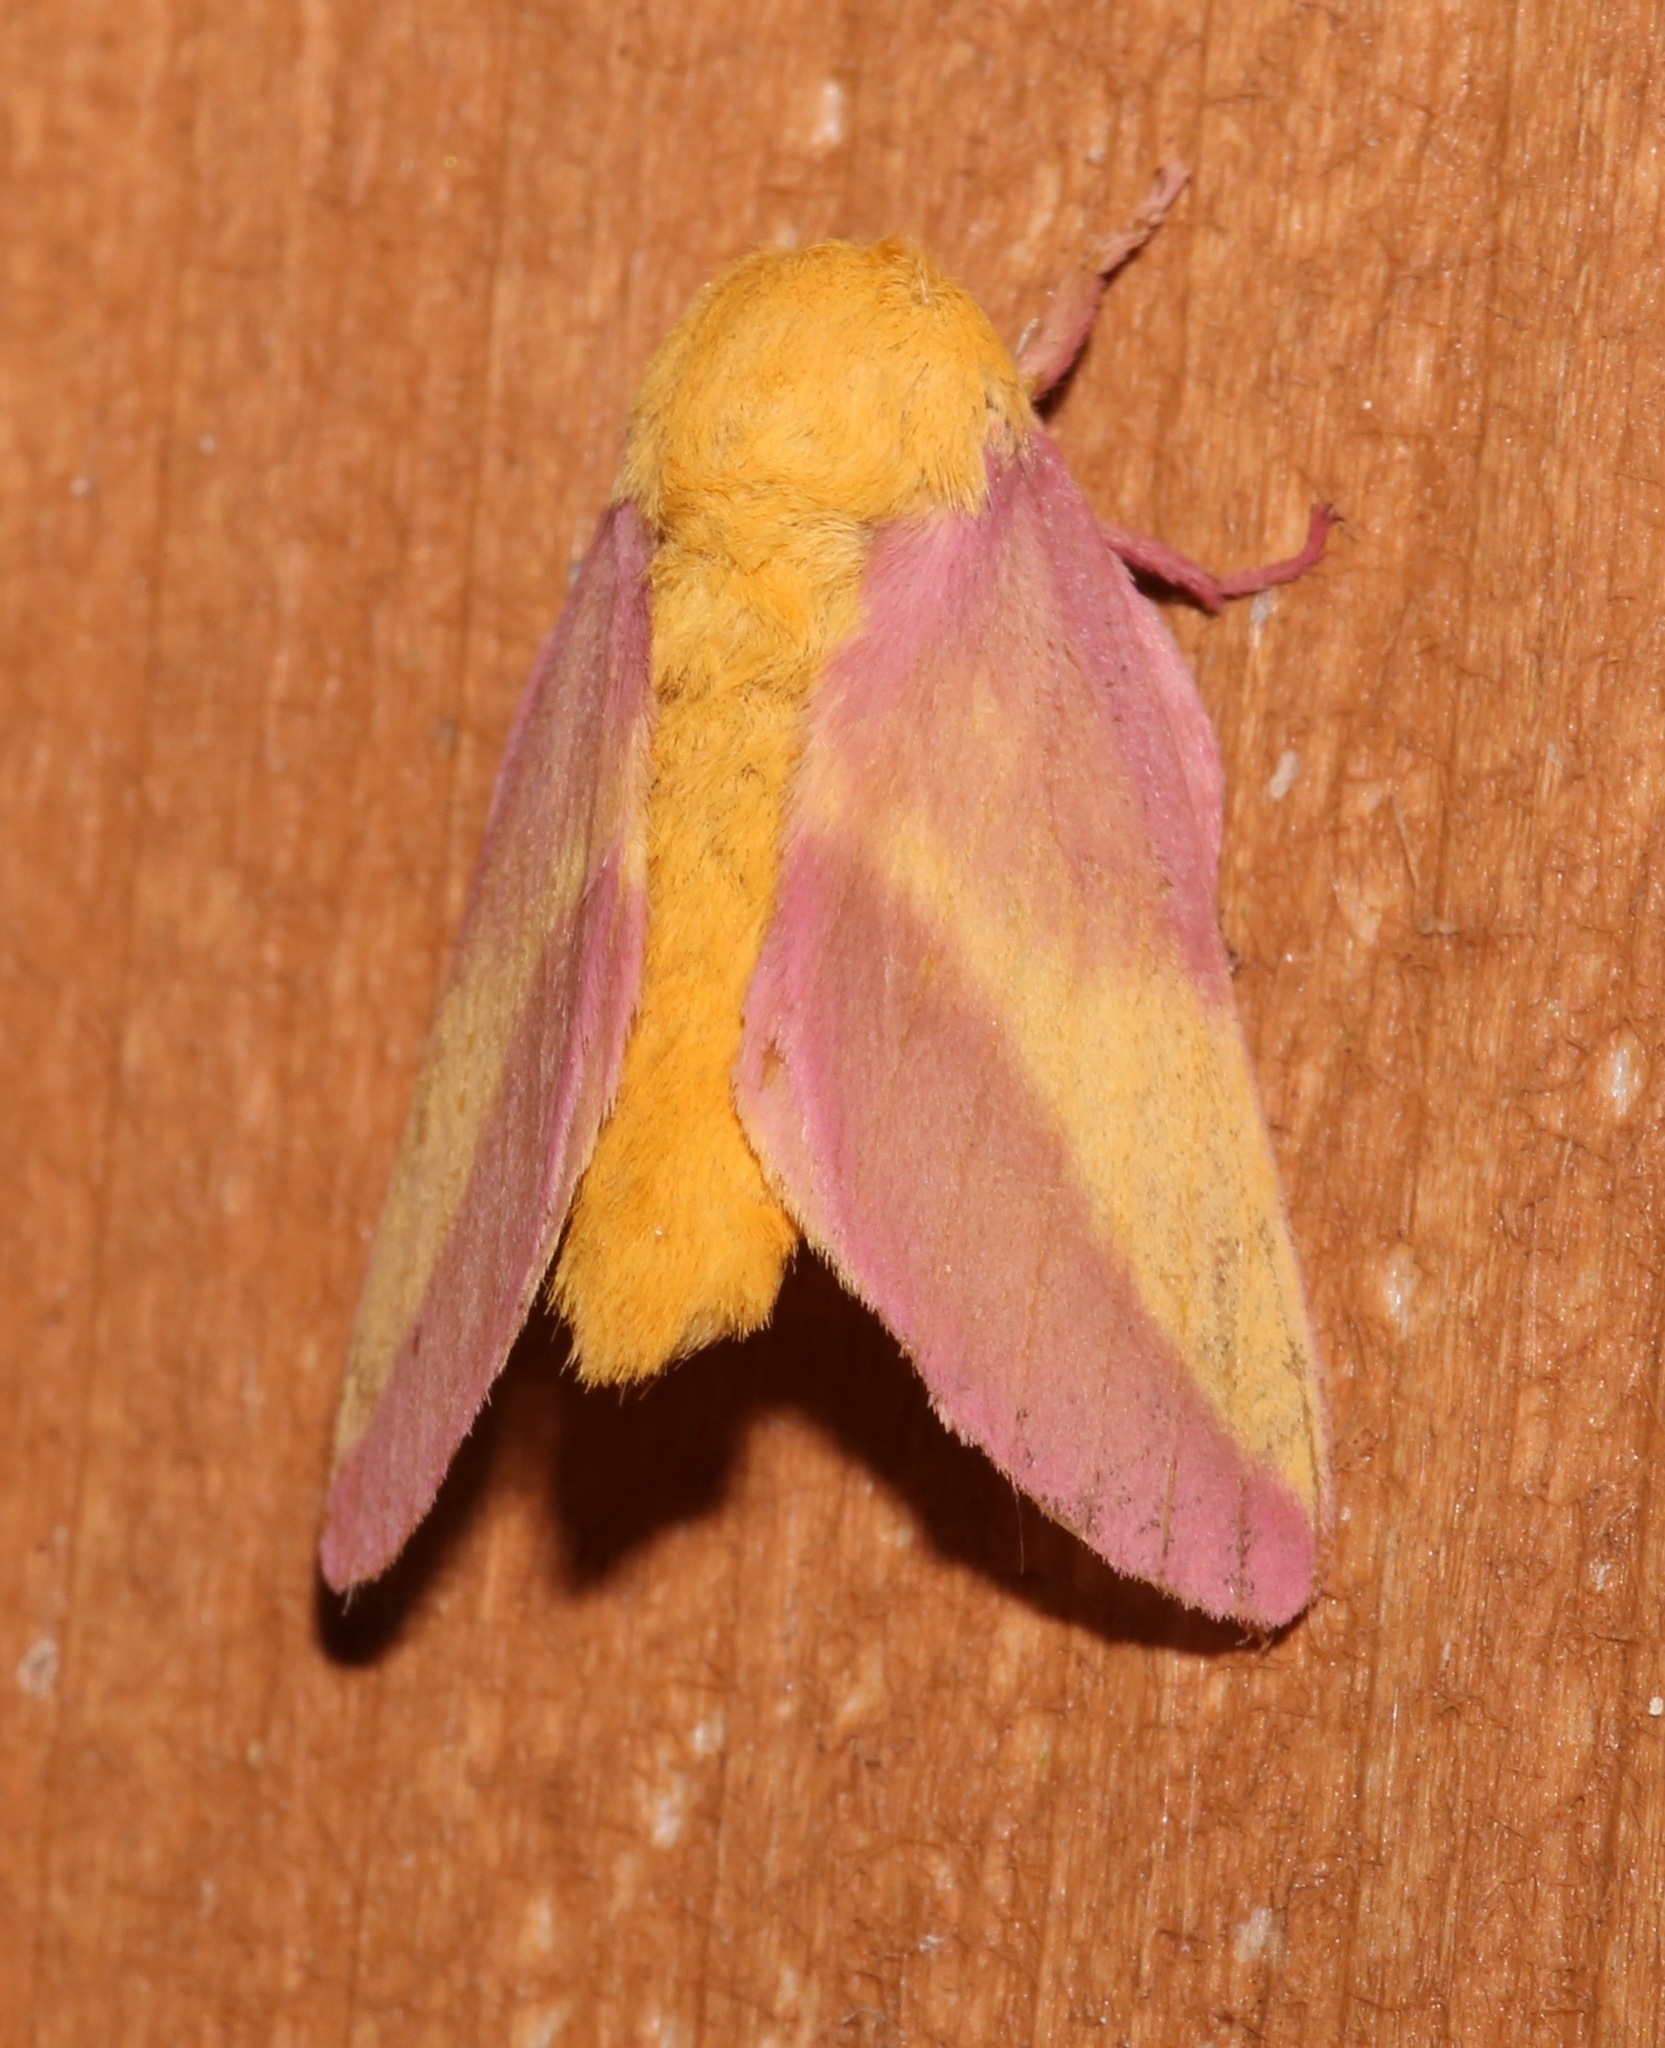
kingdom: Animalia
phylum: Arthropoda
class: Insecta
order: Lepidoptera
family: Saturniidae
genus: Dryocampa
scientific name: Dryocampa rubicunda
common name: Rosy maple moth
